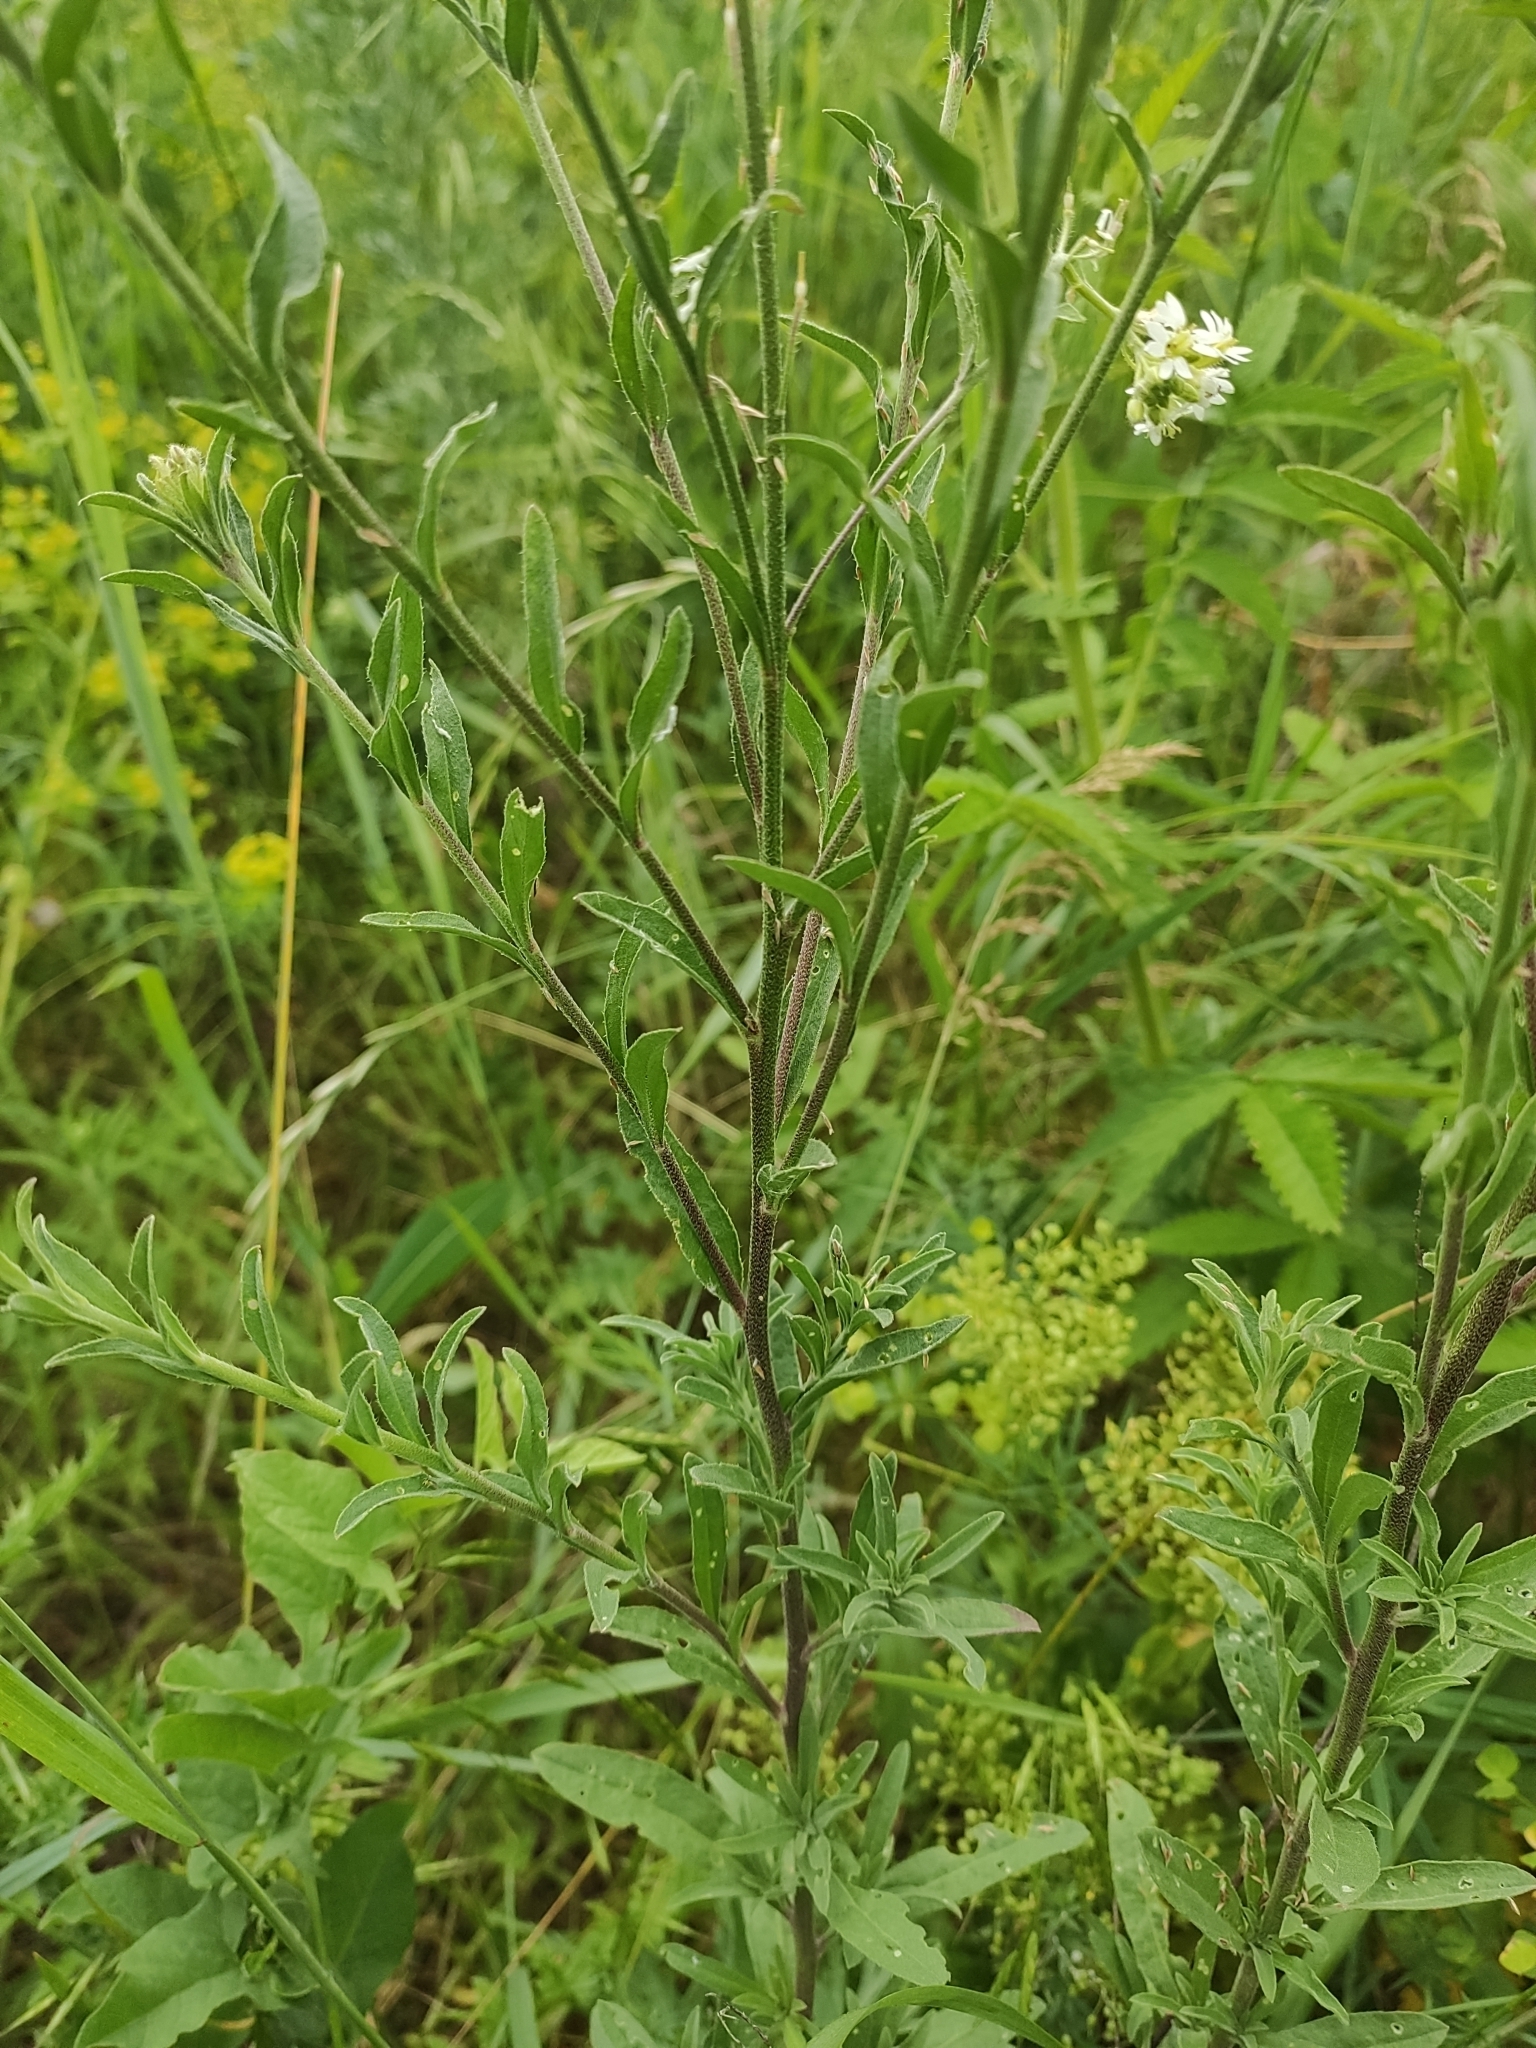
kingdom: Plantae
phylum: Tracheophyta
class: Magnoliopsida
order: Brassicales
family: Brassicaceae
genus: Berteroa
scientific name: Berteroa incana
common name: Hoary alison
